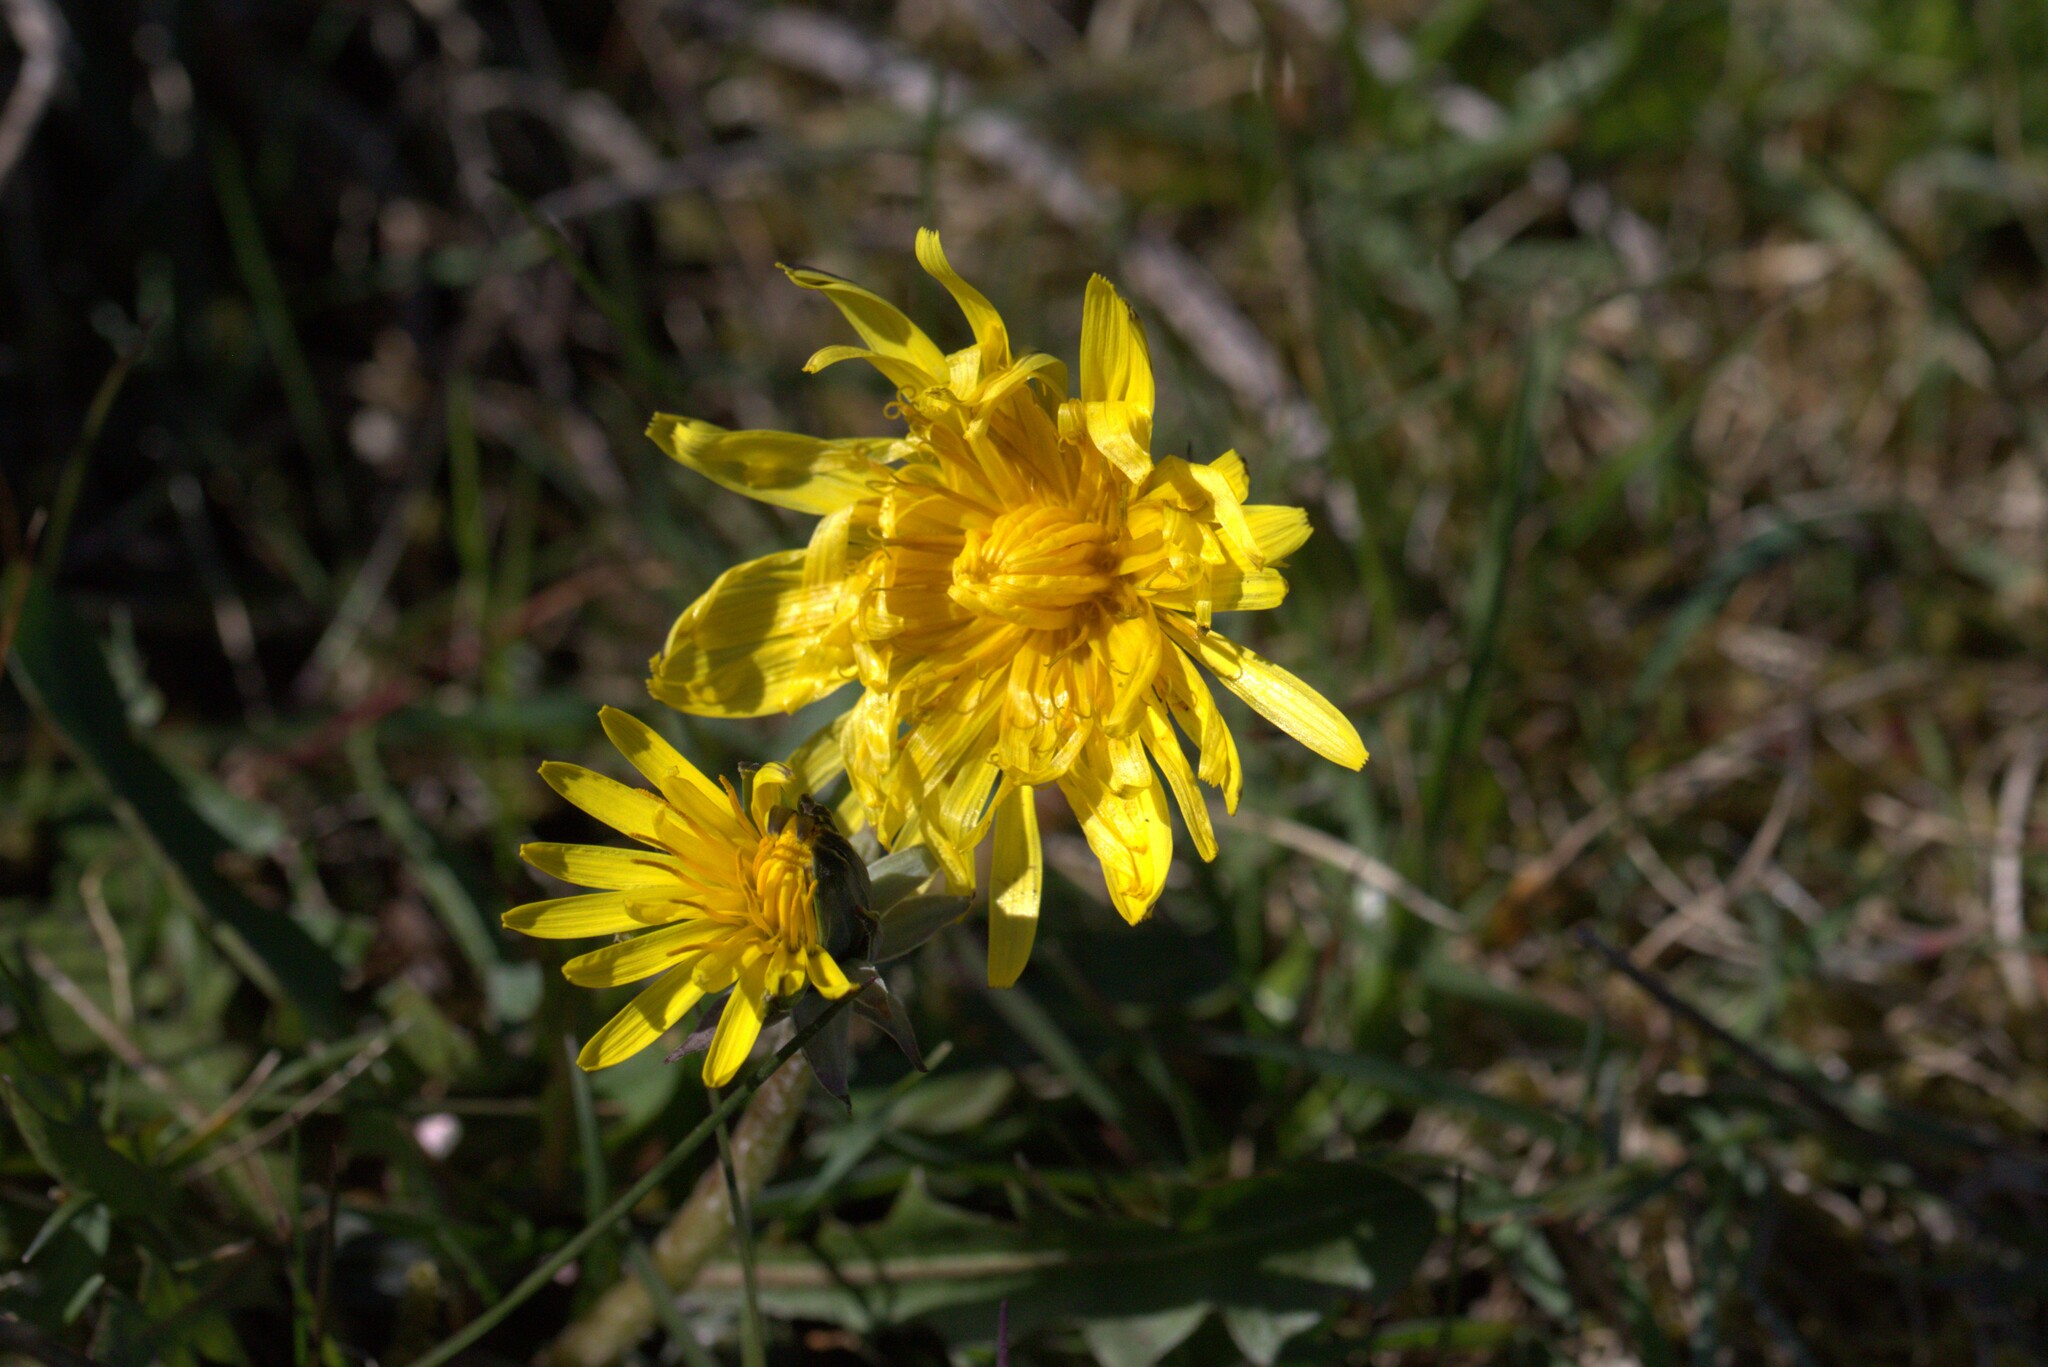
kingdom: Plantae
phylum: Tracheophyta
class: Magnoliopsida
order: Asterales
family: Asteraceae
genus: Taraxacum
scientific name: Taraxacum gelertii
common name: Gelert's dandelion
